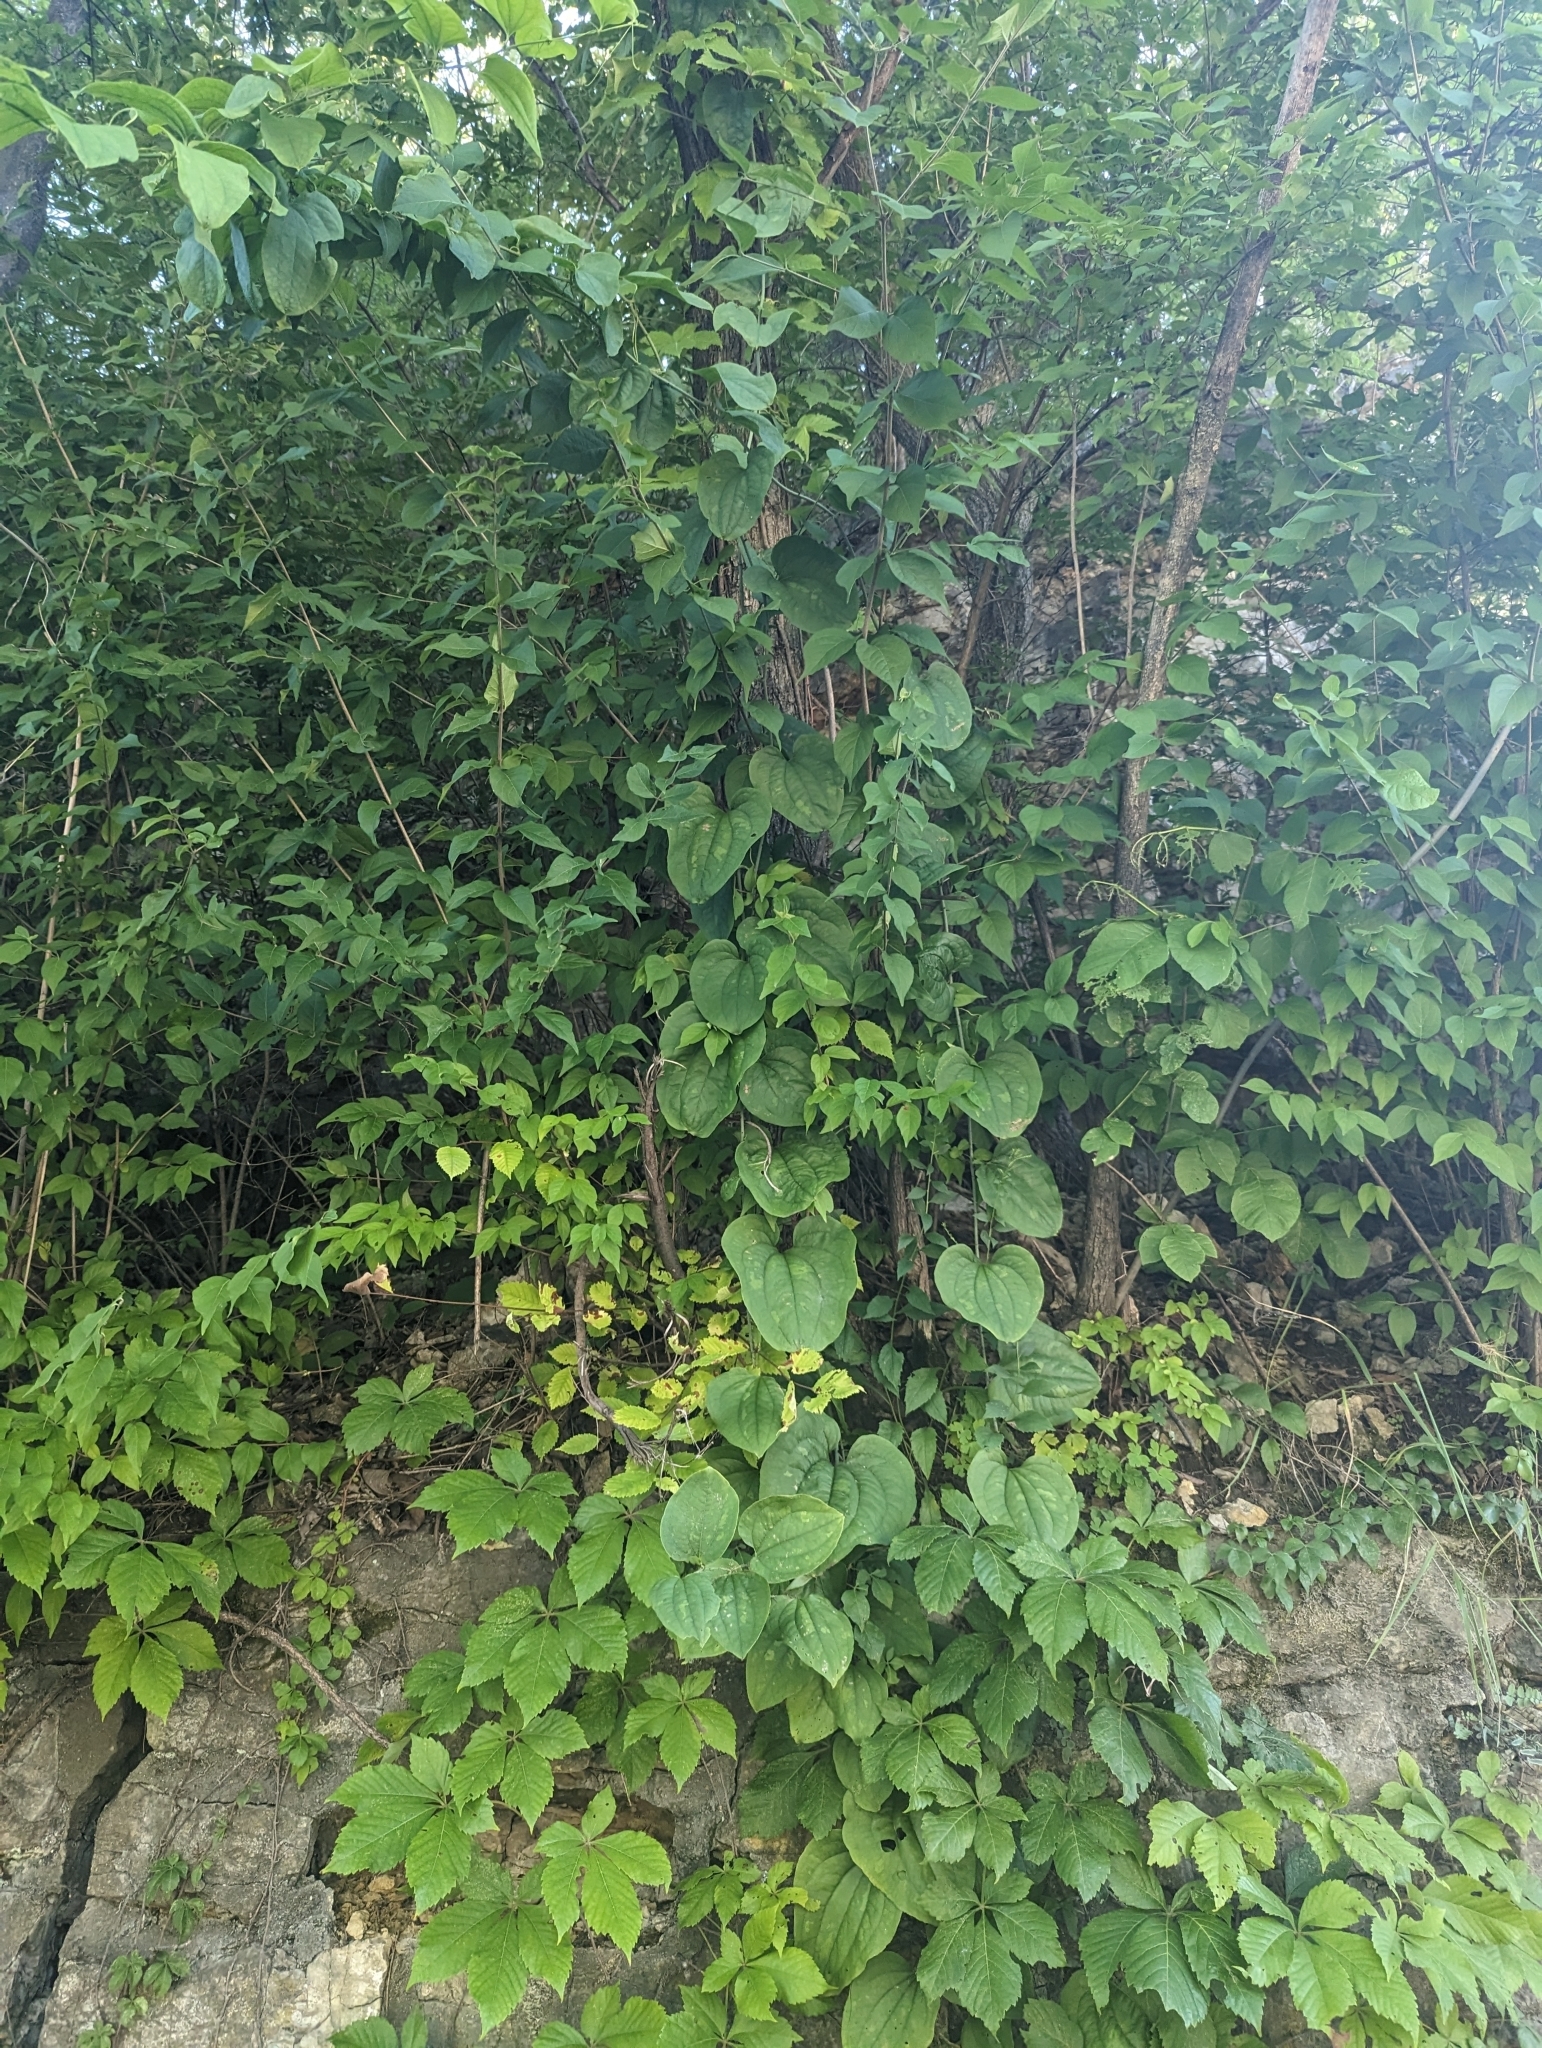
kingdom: Plantae
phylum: Tracheophyta
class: Liliopsida
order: Liliales
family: Smilacaceae
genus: Smilax
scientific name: Smilax tamnoides
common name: Hellfetter
